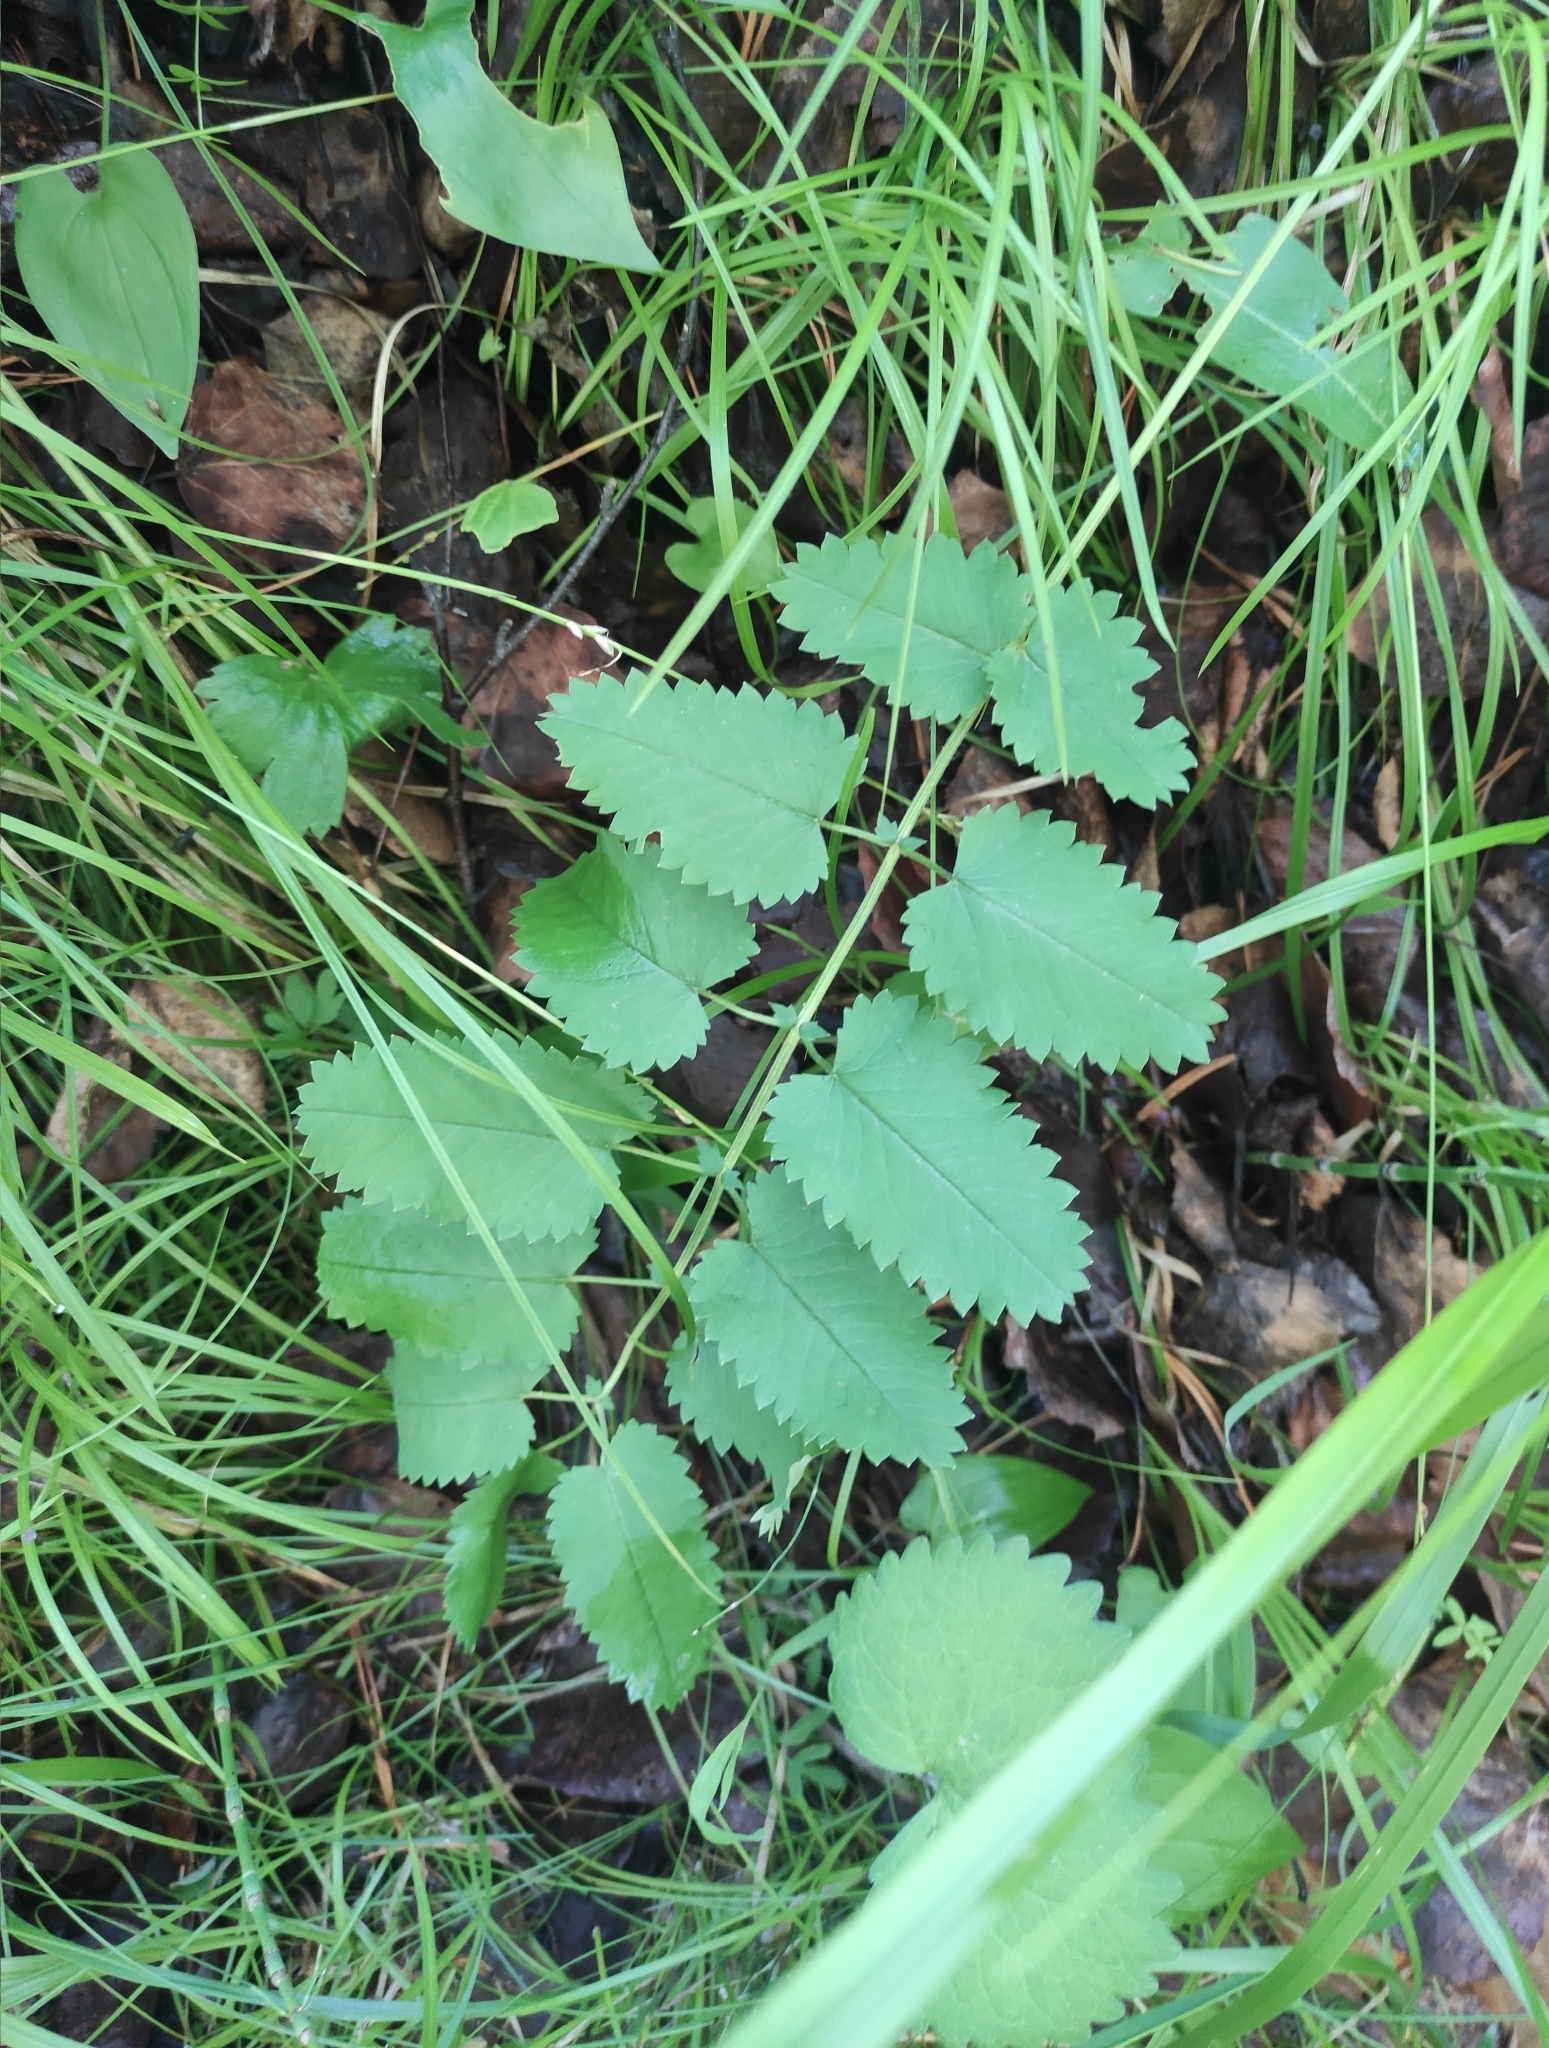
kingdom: Plantae
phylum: Tracheophyta
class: Magnoliopsida
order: Rosales
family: Rosaceae
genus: Sanguisorba
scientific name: Sanguisorba officinalis
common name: Great burnet
